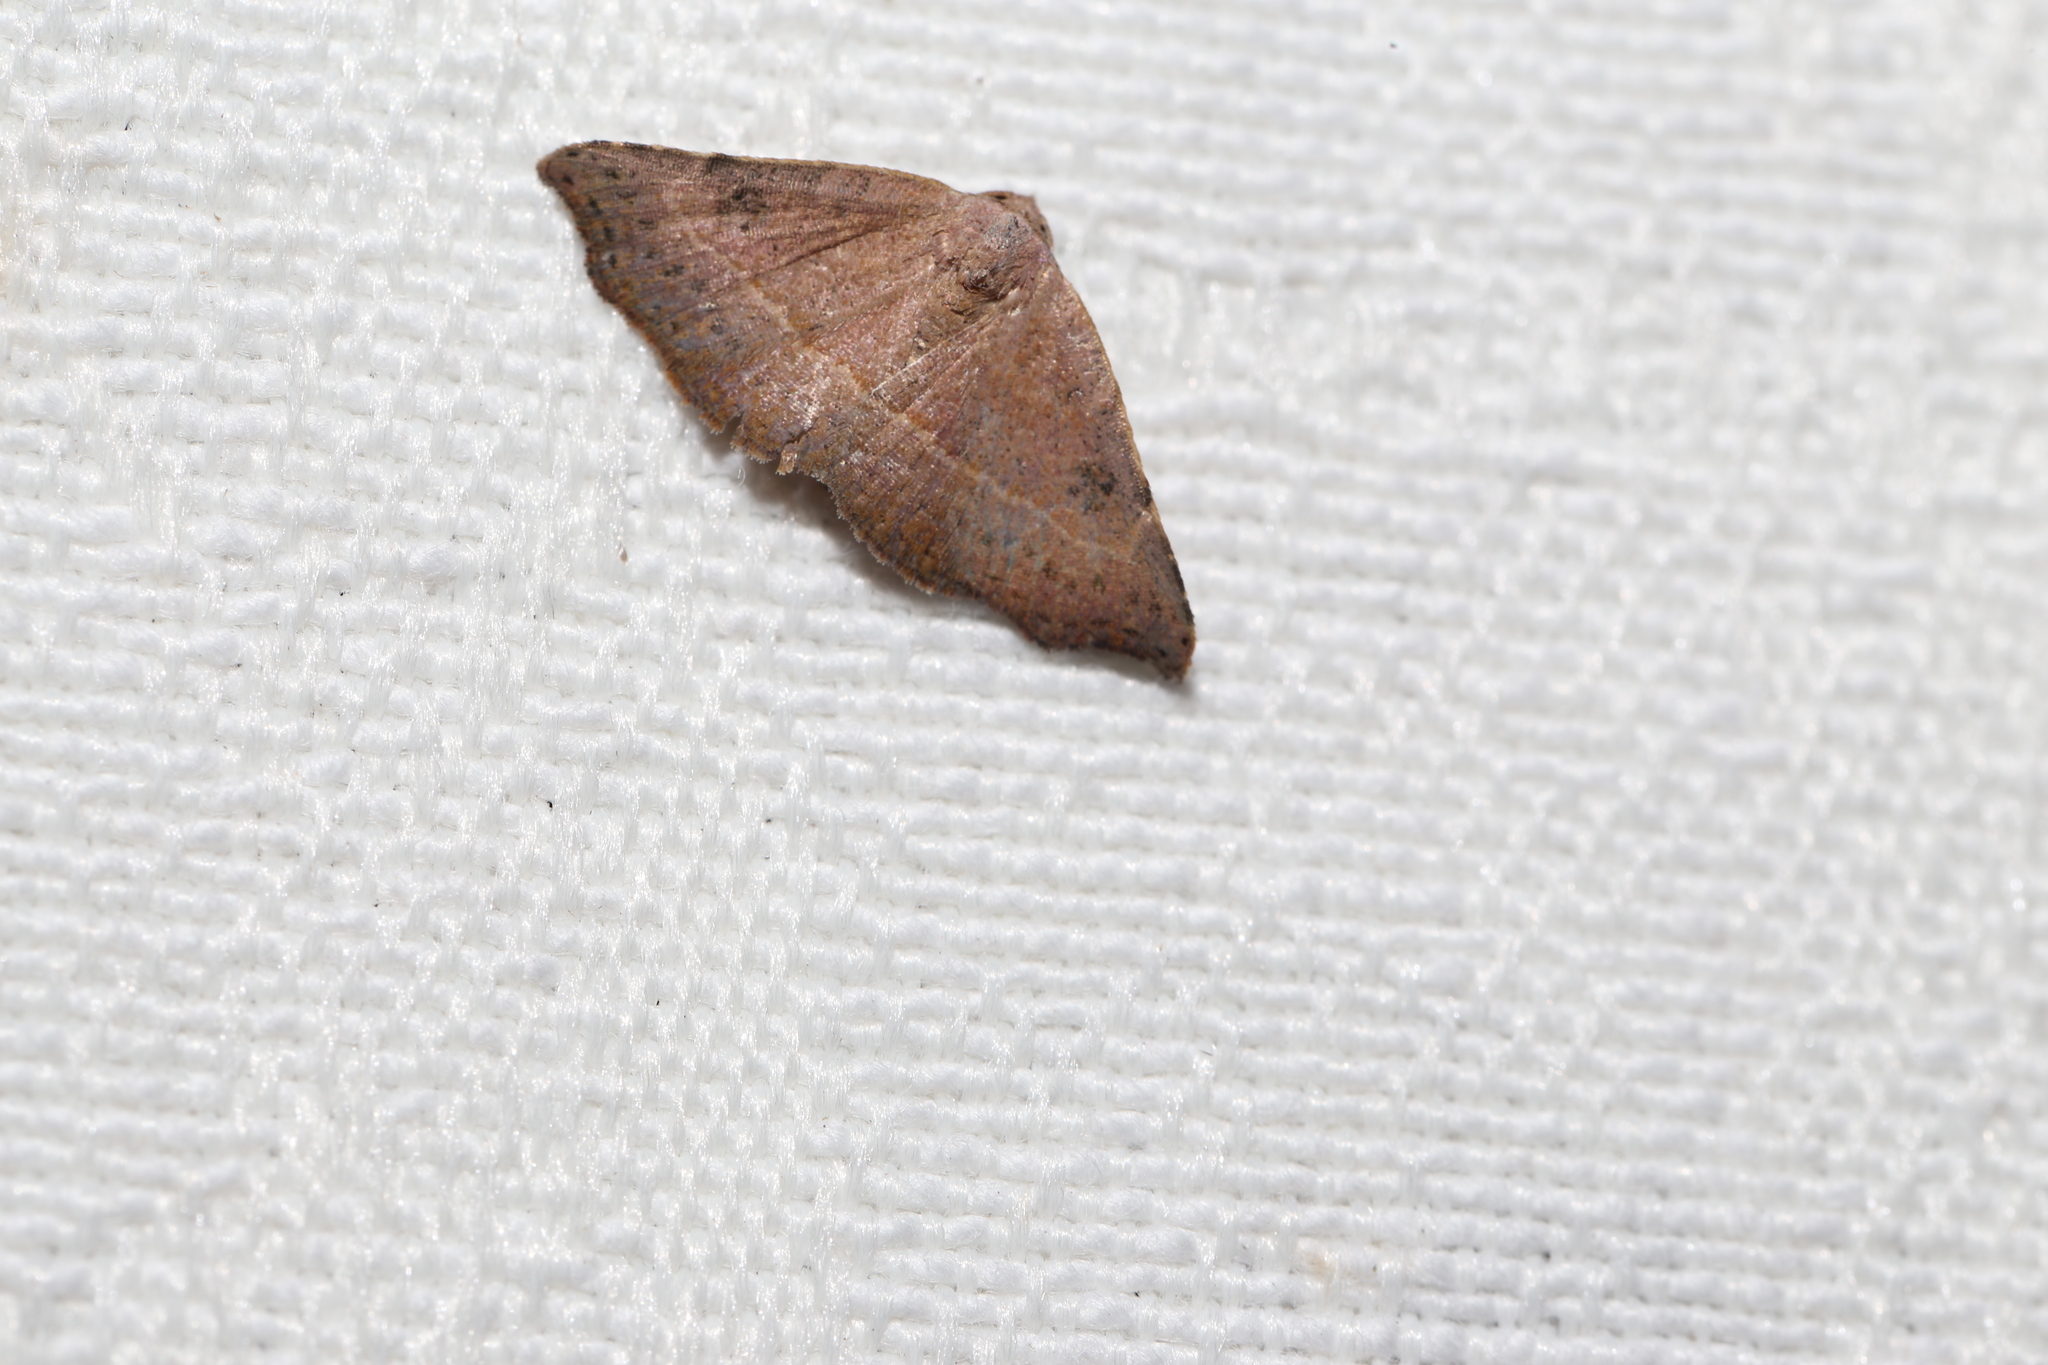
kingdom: Animalia
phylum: Arthropoda
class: Insecta
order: Lepidoptera
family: Erebidae
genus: Laspeyria
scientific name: Laspeyria concavata
